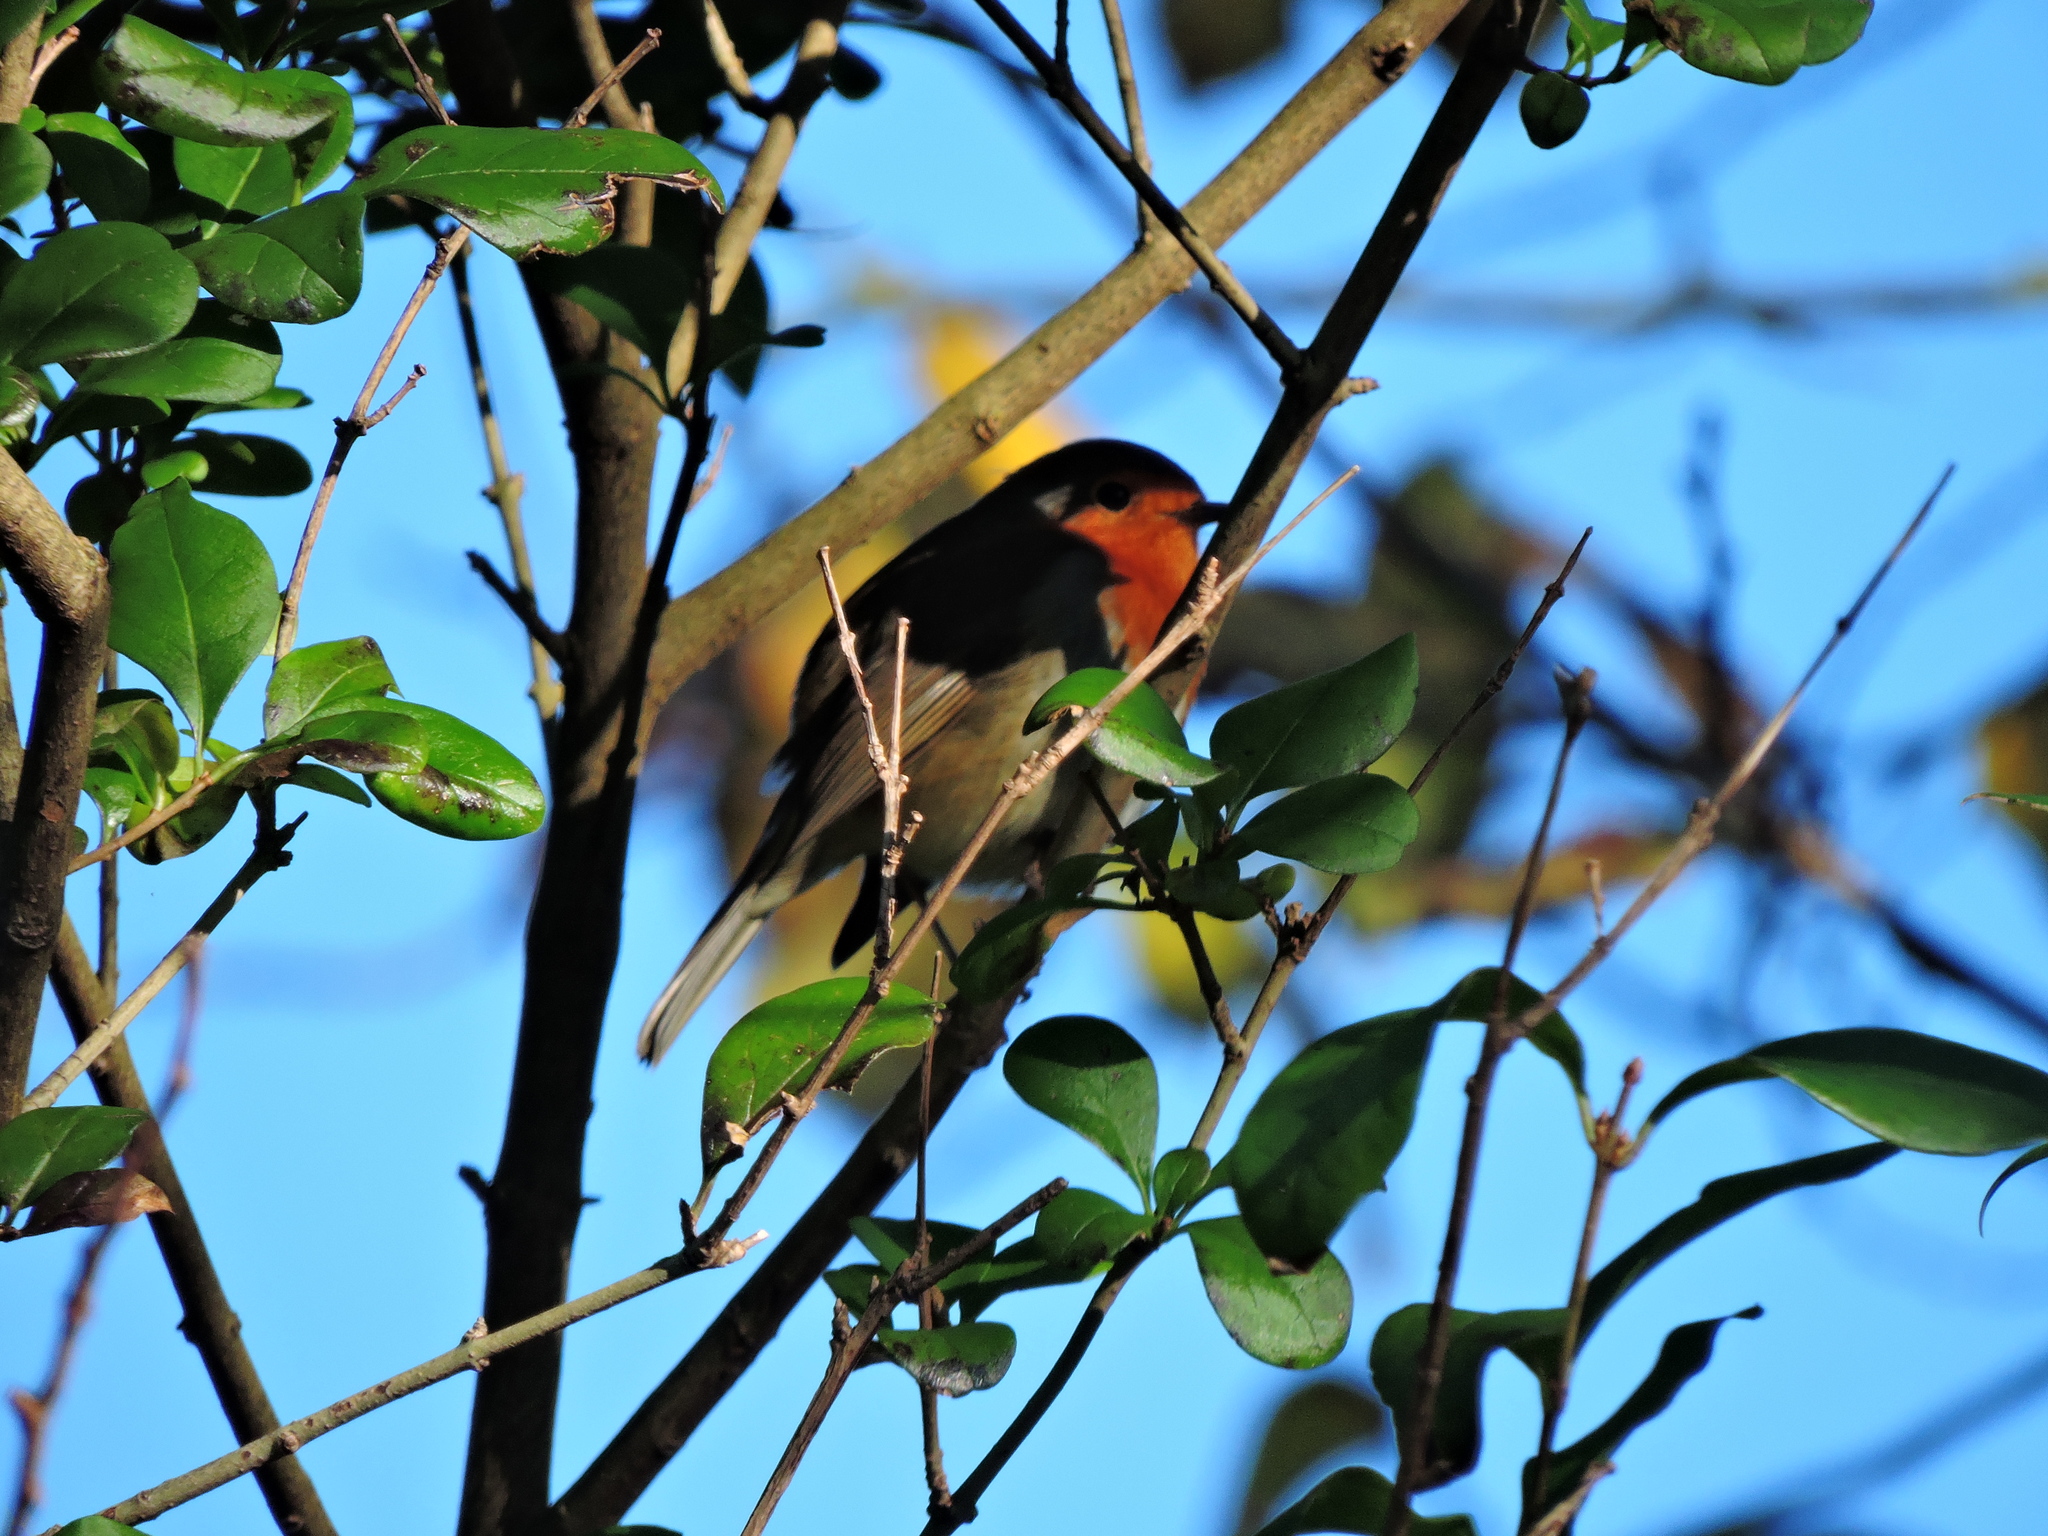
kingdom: Animalia
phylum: Chordata
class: Aves
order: Passeriformes
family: Muscicapidae
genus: Erithacus
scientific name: Erithacus rubecula
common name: European robin
